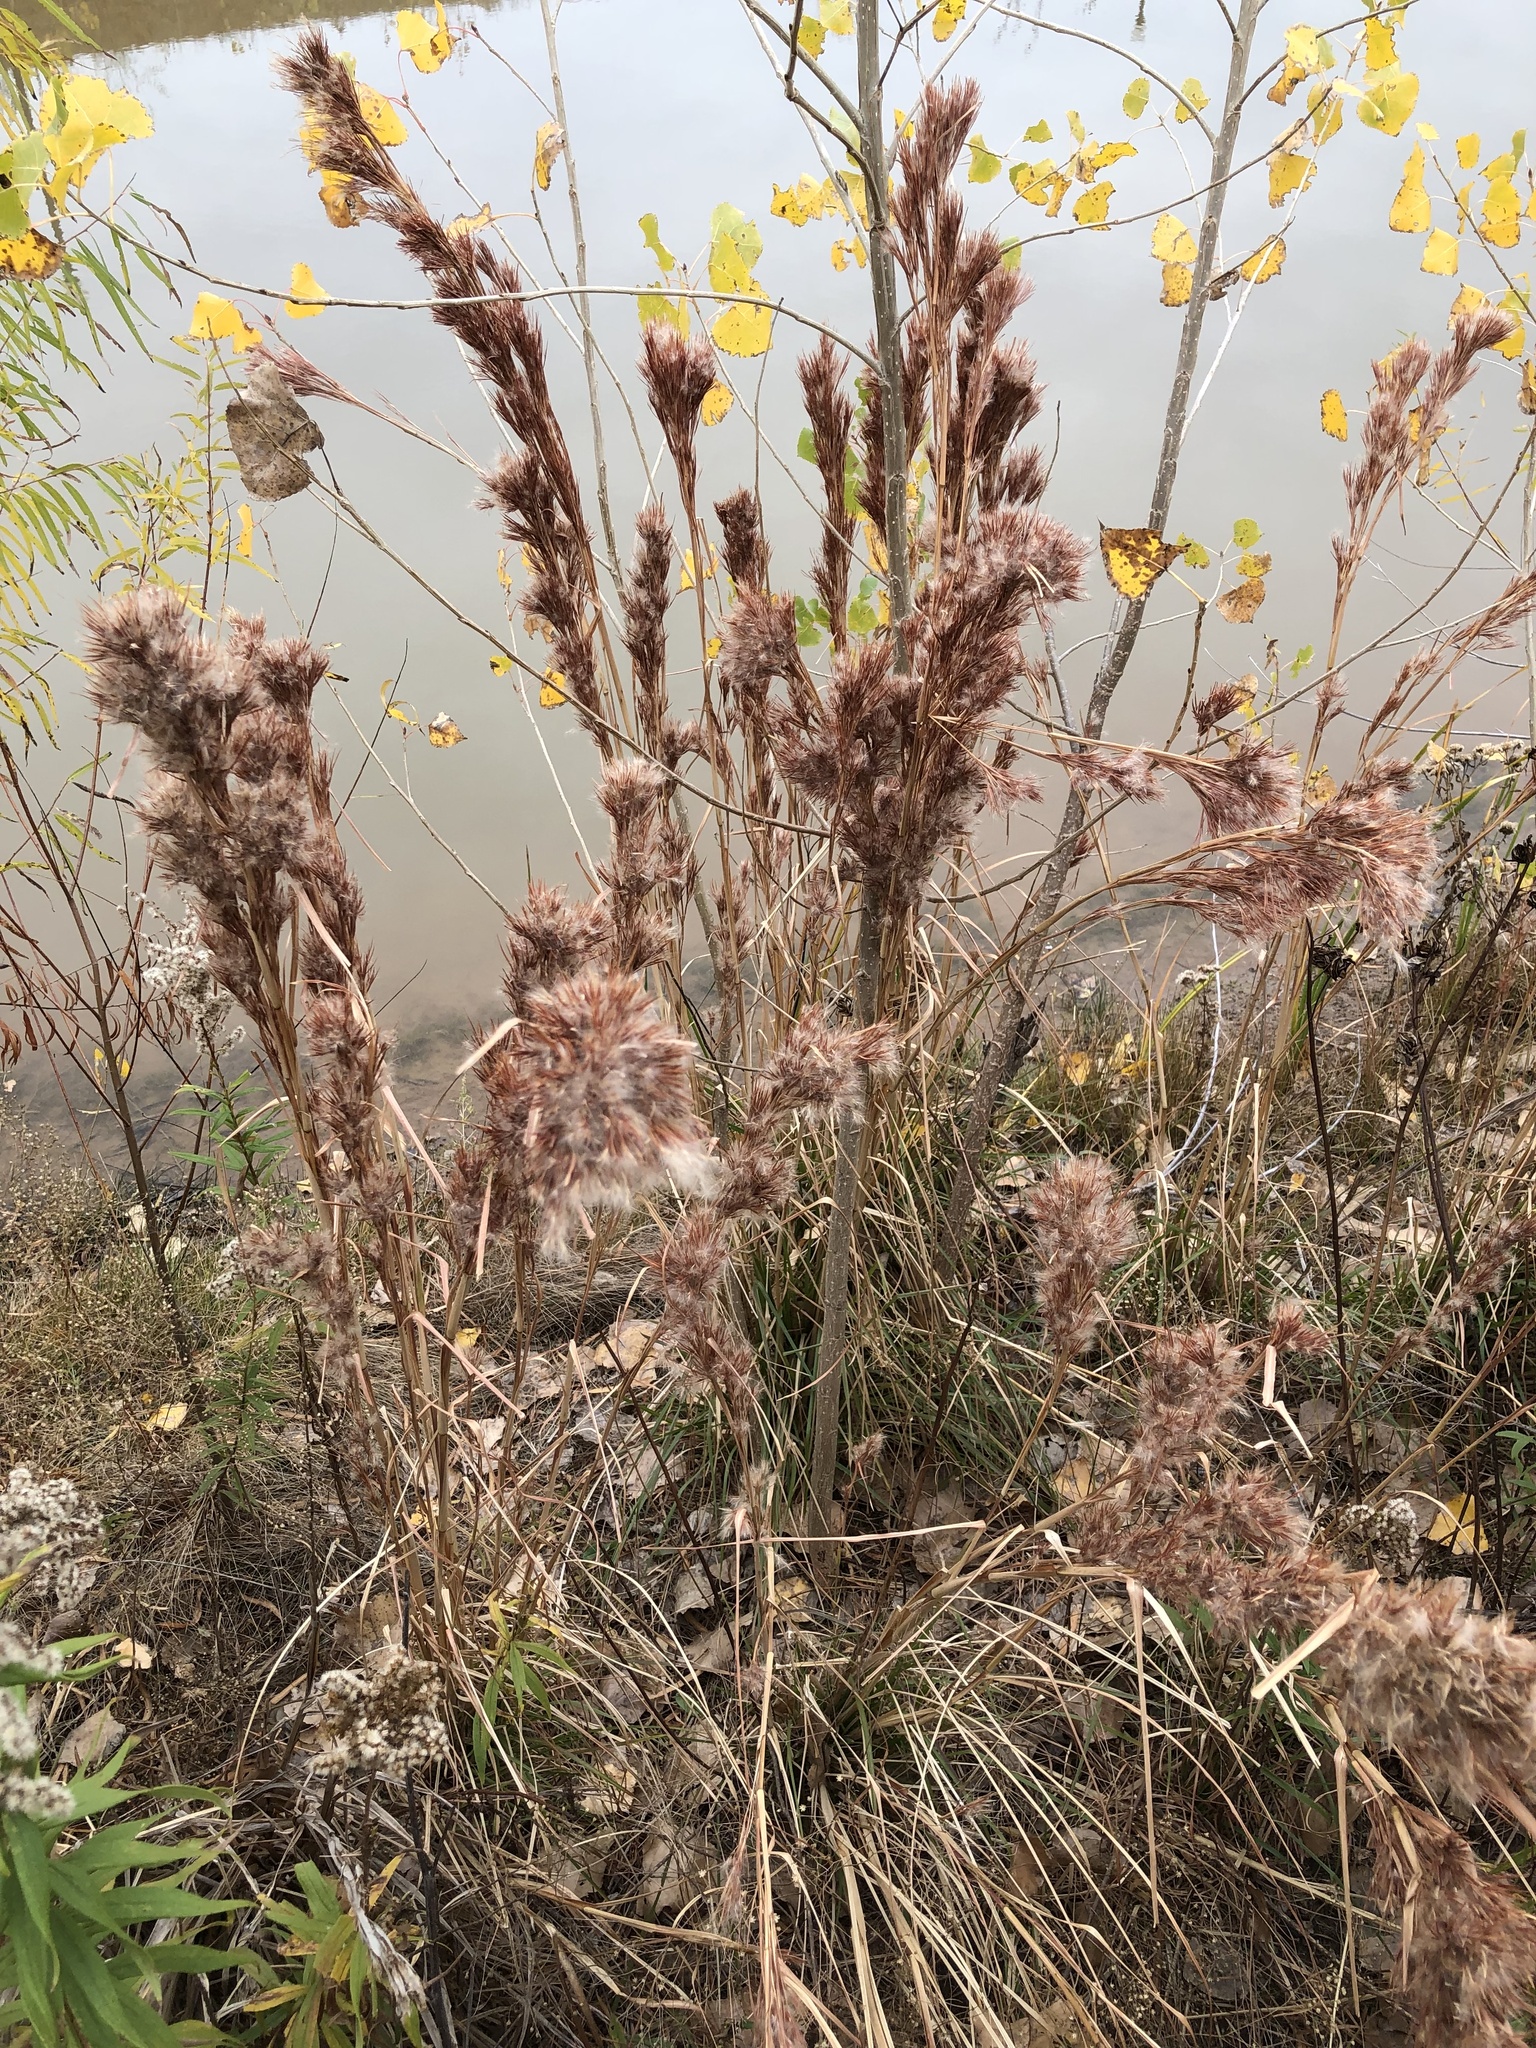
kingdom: Plantae
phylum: Tracheophyta
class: Liliopsida
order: Poales
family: Poaceae
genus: Andropogon
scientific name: Andropogon tenuispatheus
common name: Bushy bluestem
